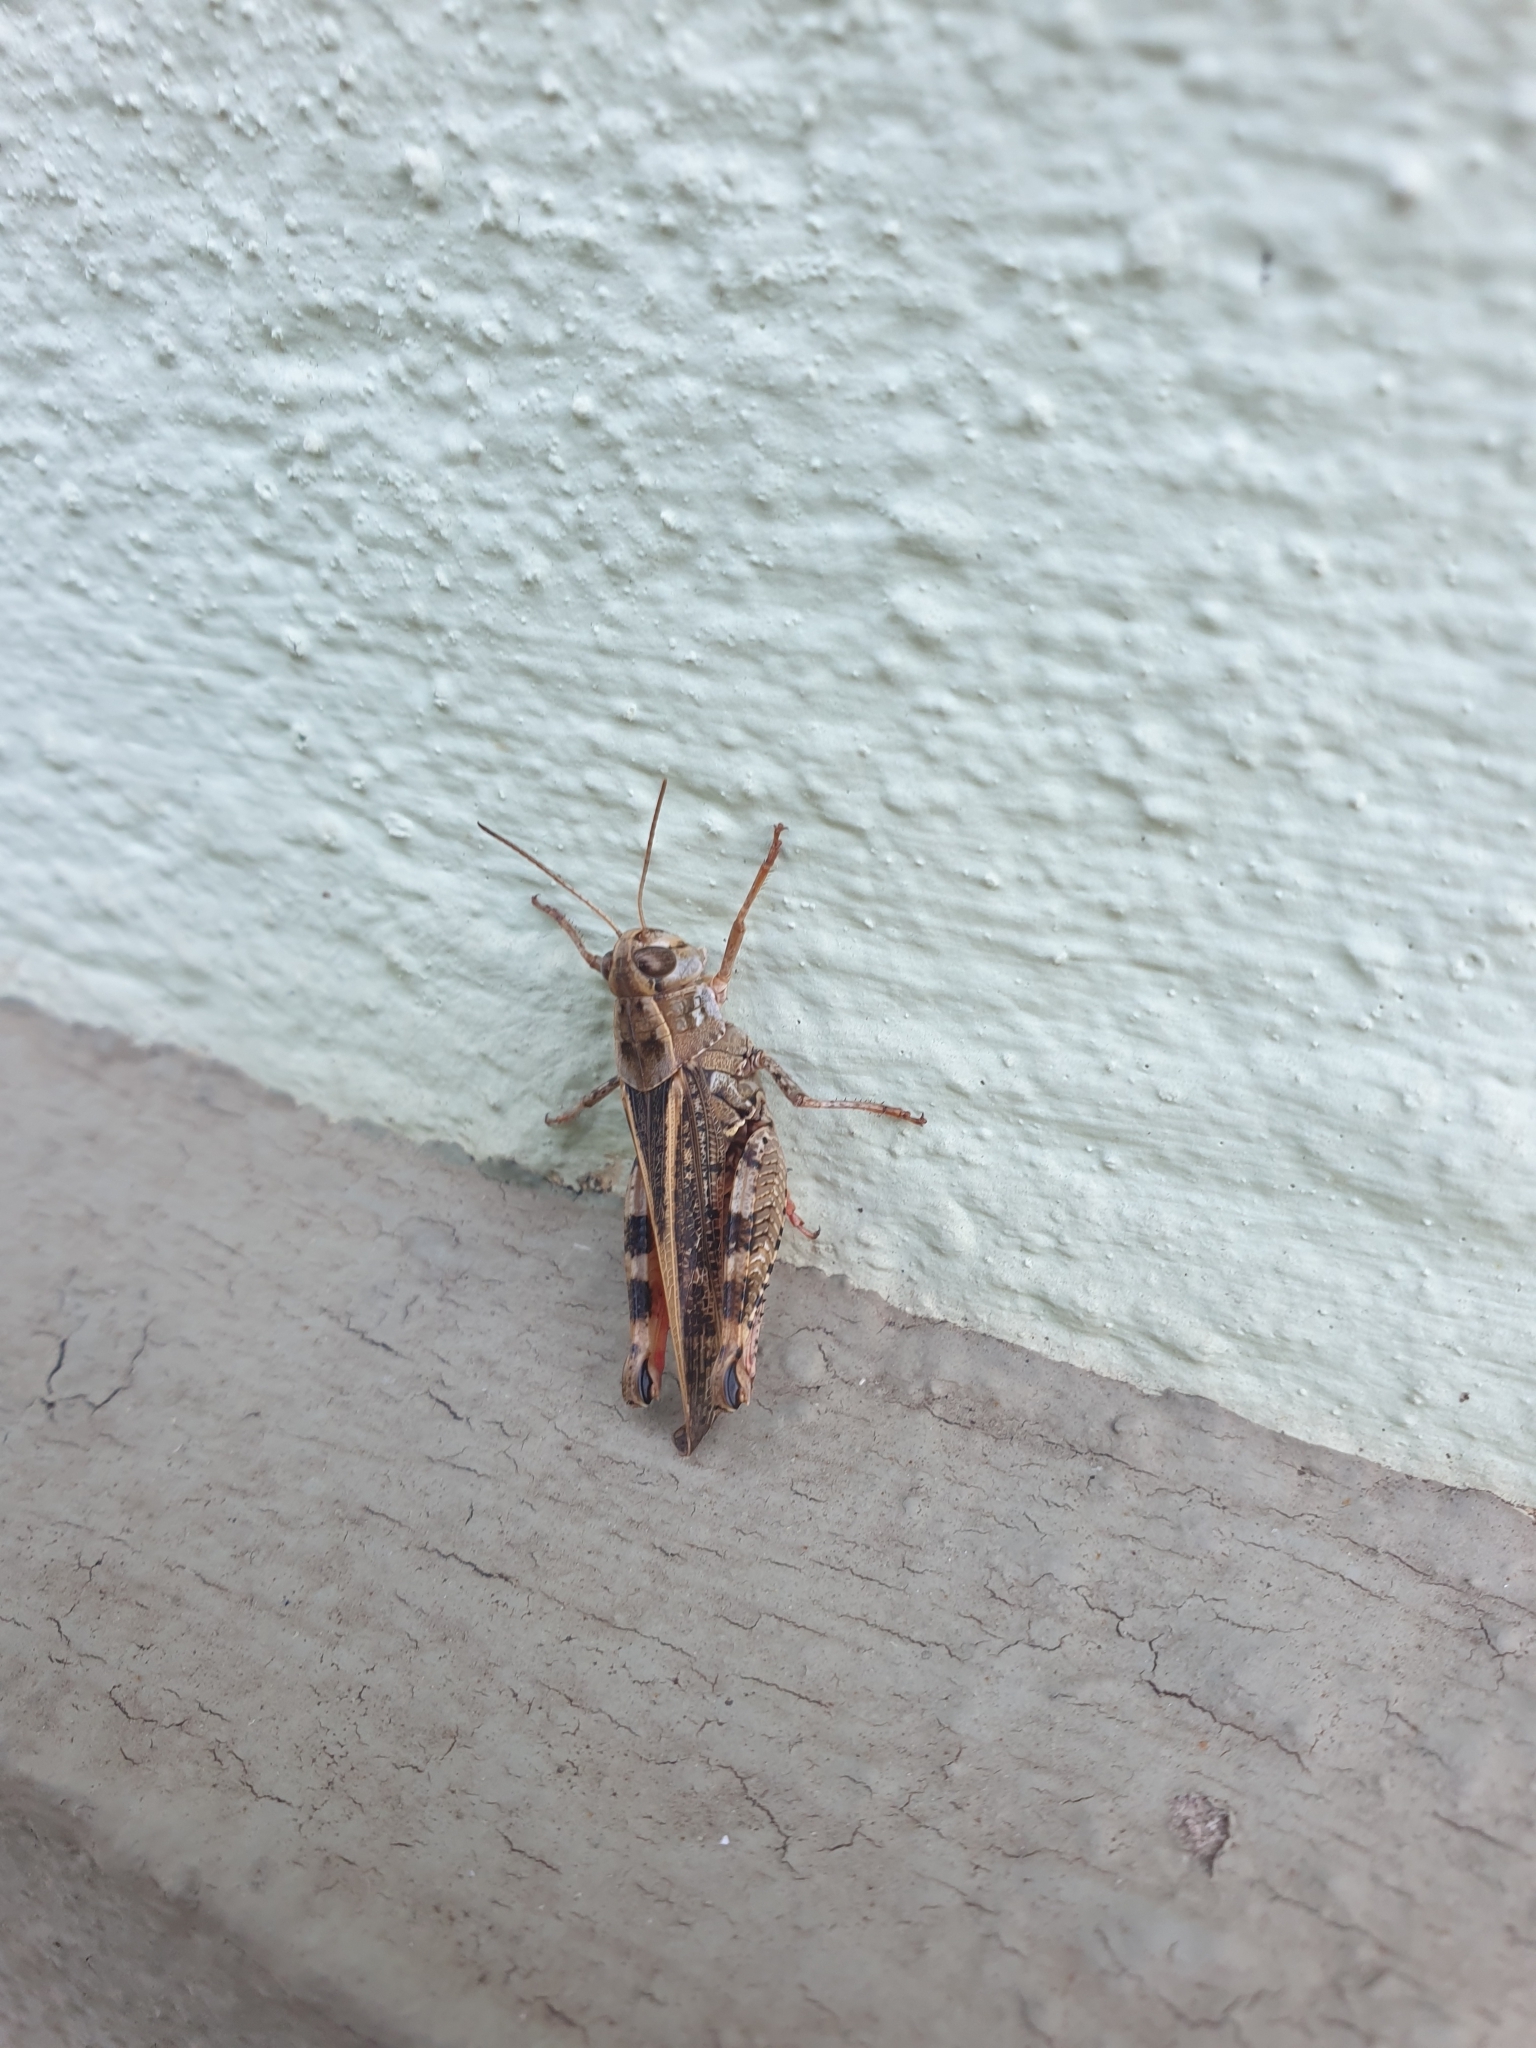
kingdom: Animalia
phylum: Arthropoda
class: Insecta
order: Orthoptera
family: Acrididae
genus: Calliptamus
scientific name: Calliptamus italicus
